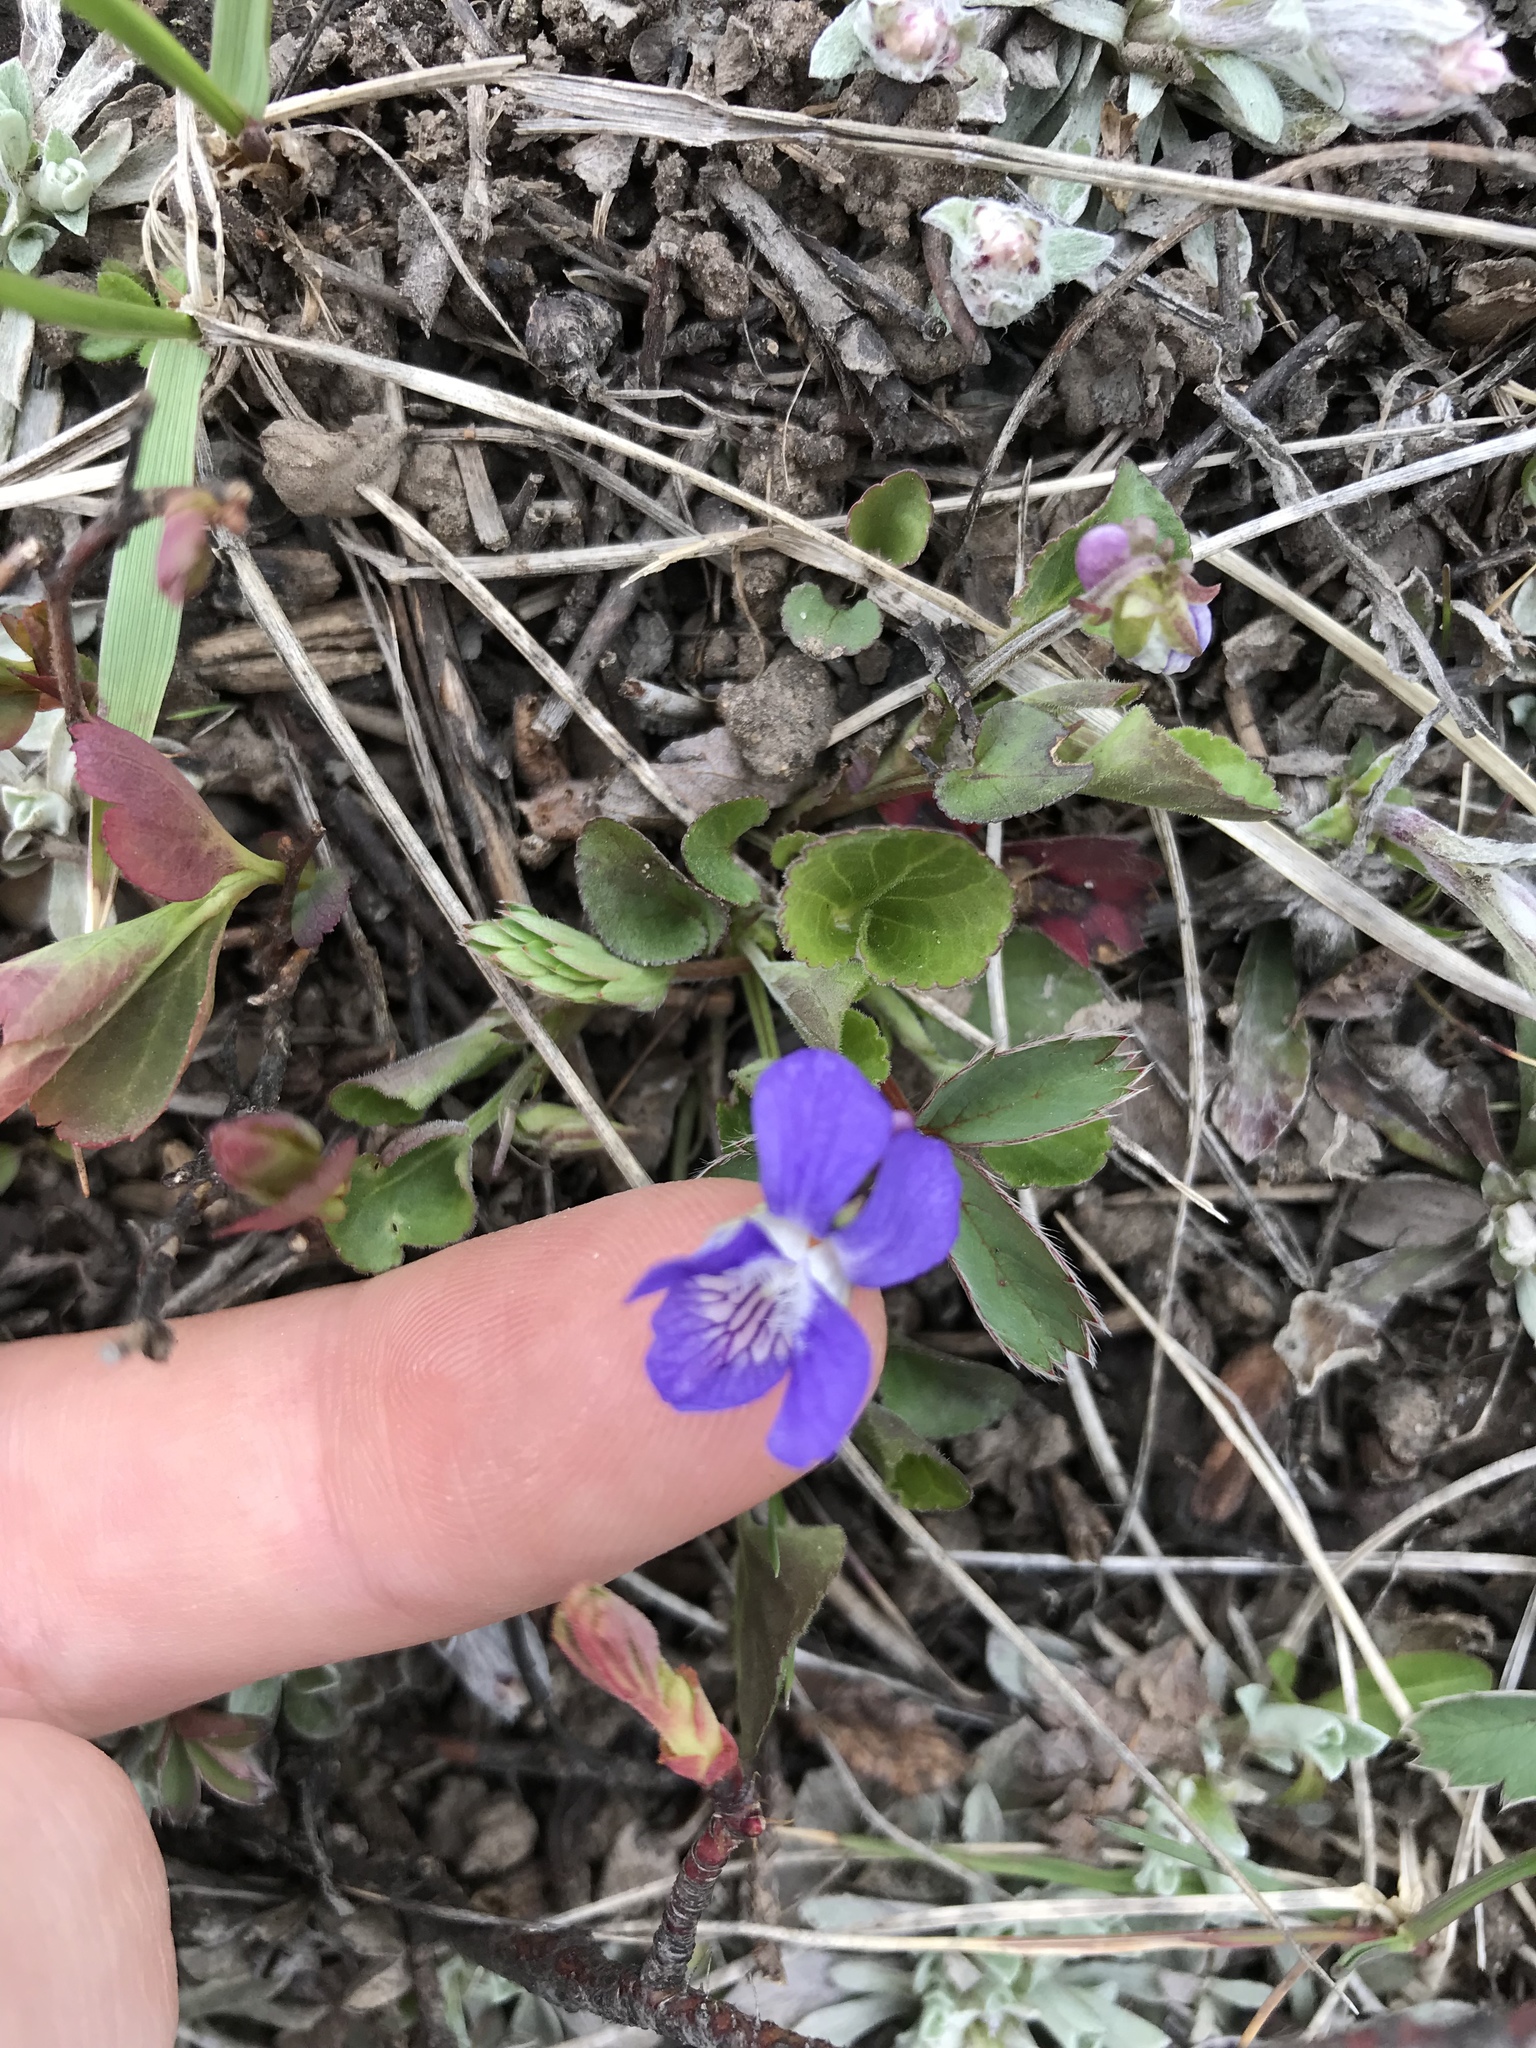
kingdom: Plantae
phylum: Tracheophyta
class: Magnoliopsida
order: Malpighiales
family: Violaceae
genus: Viola
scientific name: Viola adunca
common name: Sand violet
